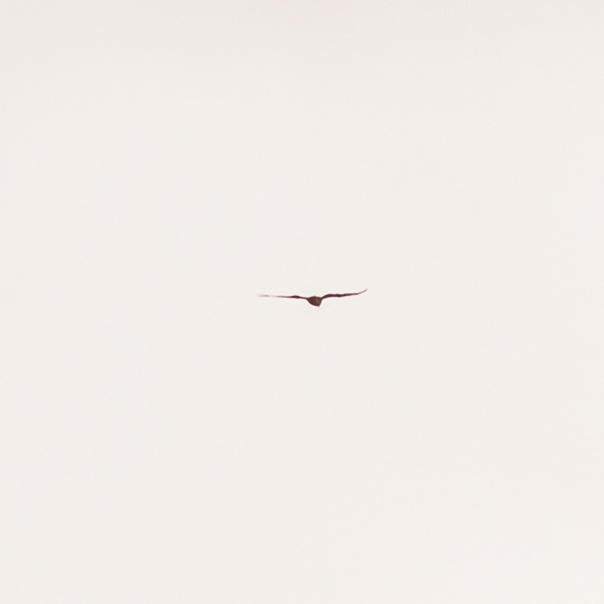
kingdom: Animalia
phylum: Chordata
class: Aves
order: Accipitriformes
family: Accipitridae
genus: Milvus
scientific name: Milvus milvus
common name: Red kite
